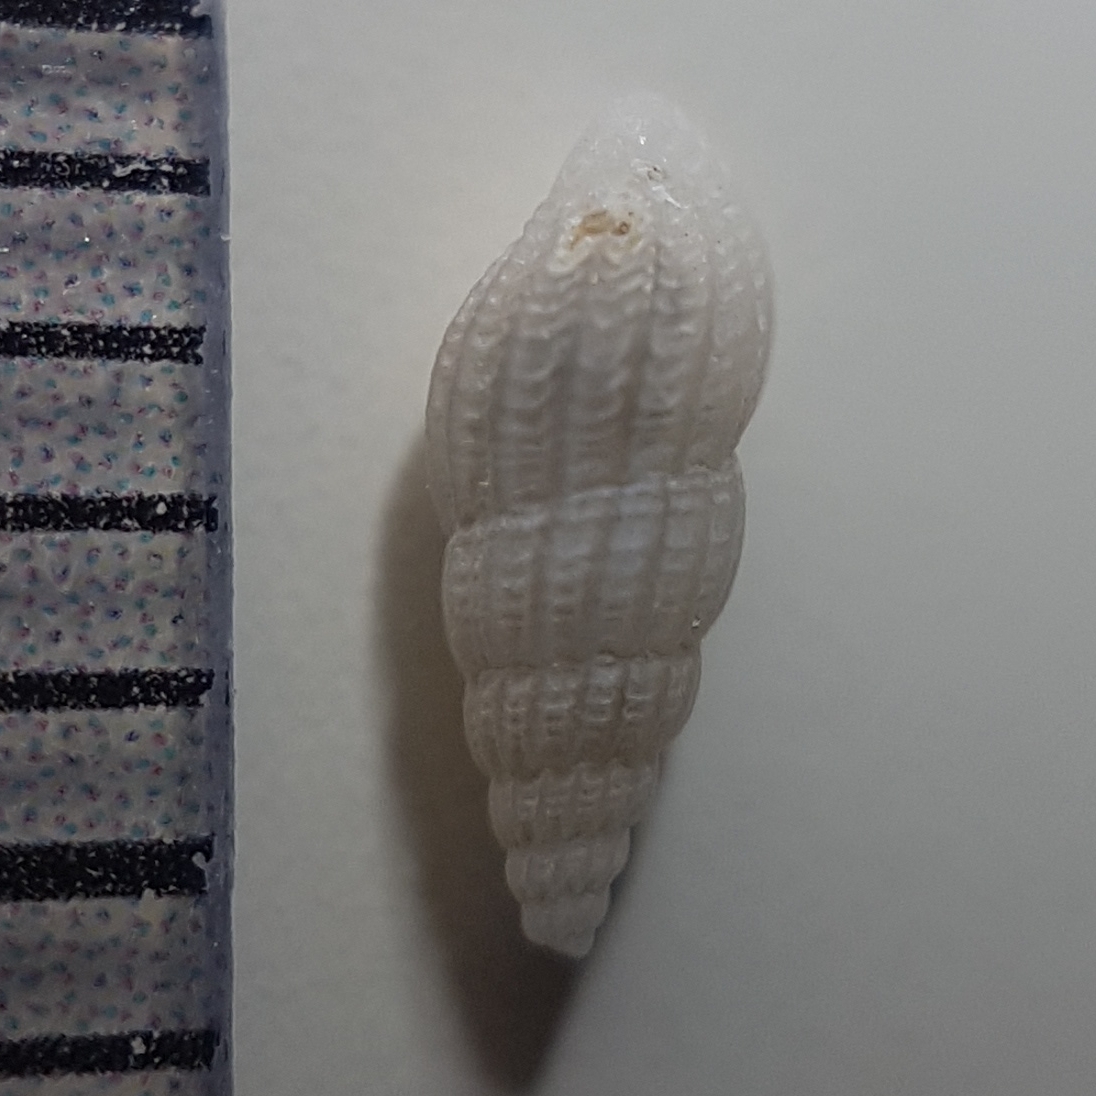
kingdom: Animalia
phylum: Mollusca
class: Gastropoda
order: Littorinimorpha
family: Rissoinidae
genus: Rissoina
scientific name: Rissoina bruguieri
